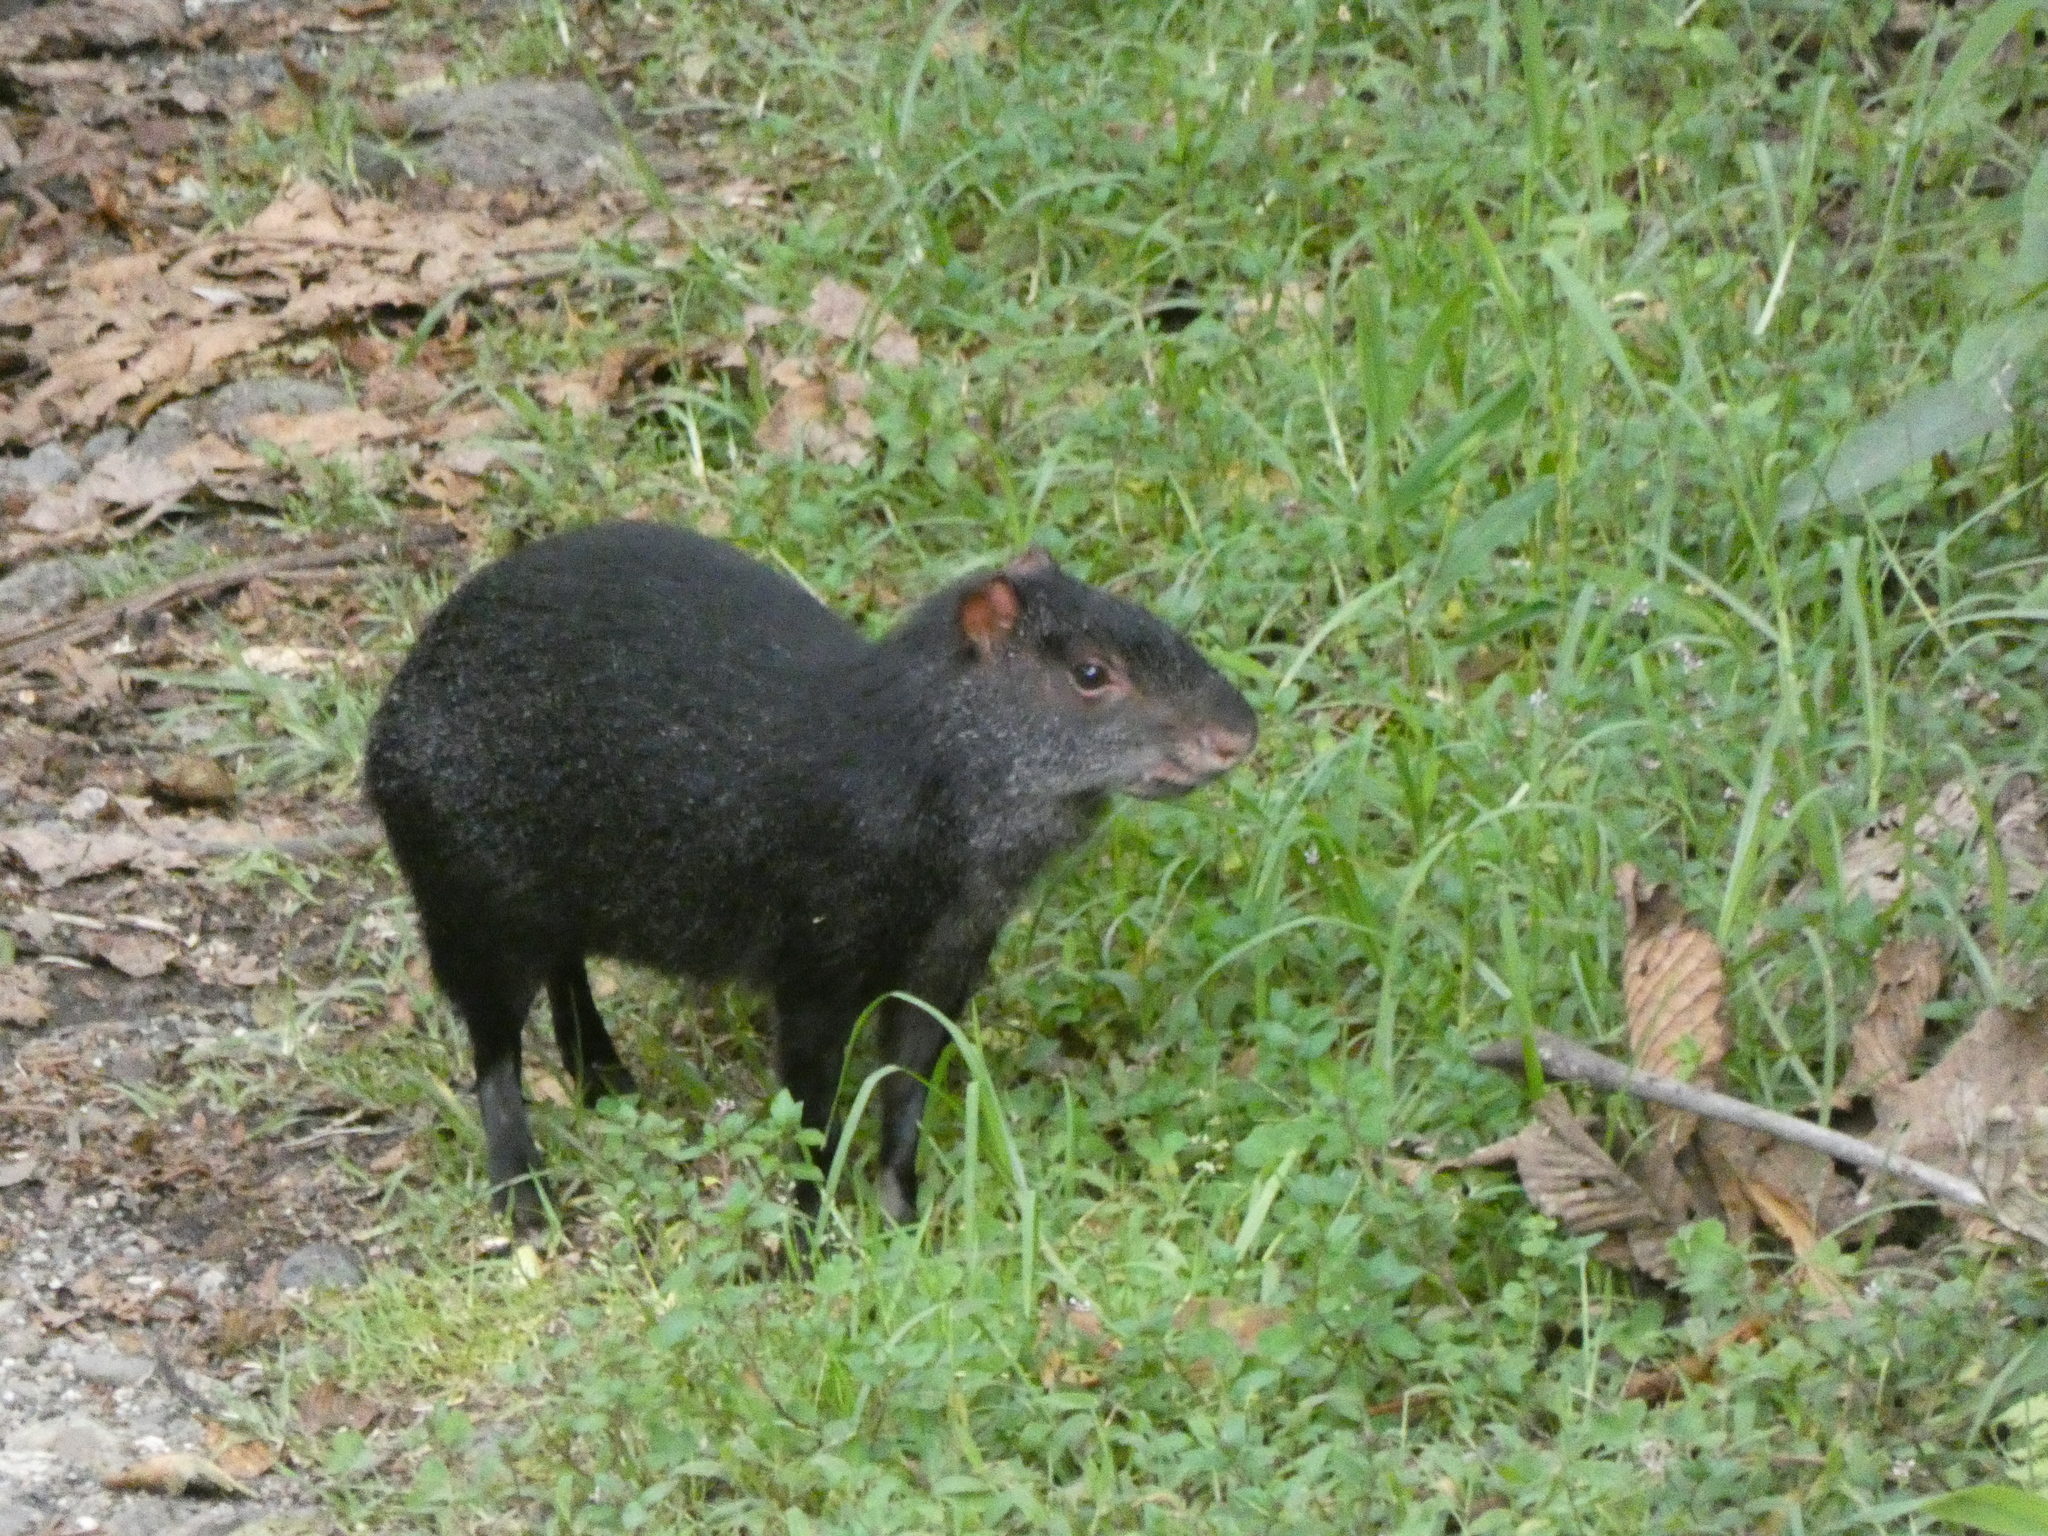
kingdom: Animalia
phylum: Chordata
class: Mammalia
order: Rodentia
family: Dasyproctidae
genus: Dasyprocta
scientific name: Dasyprocta fuliginosa
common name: Black agouti
